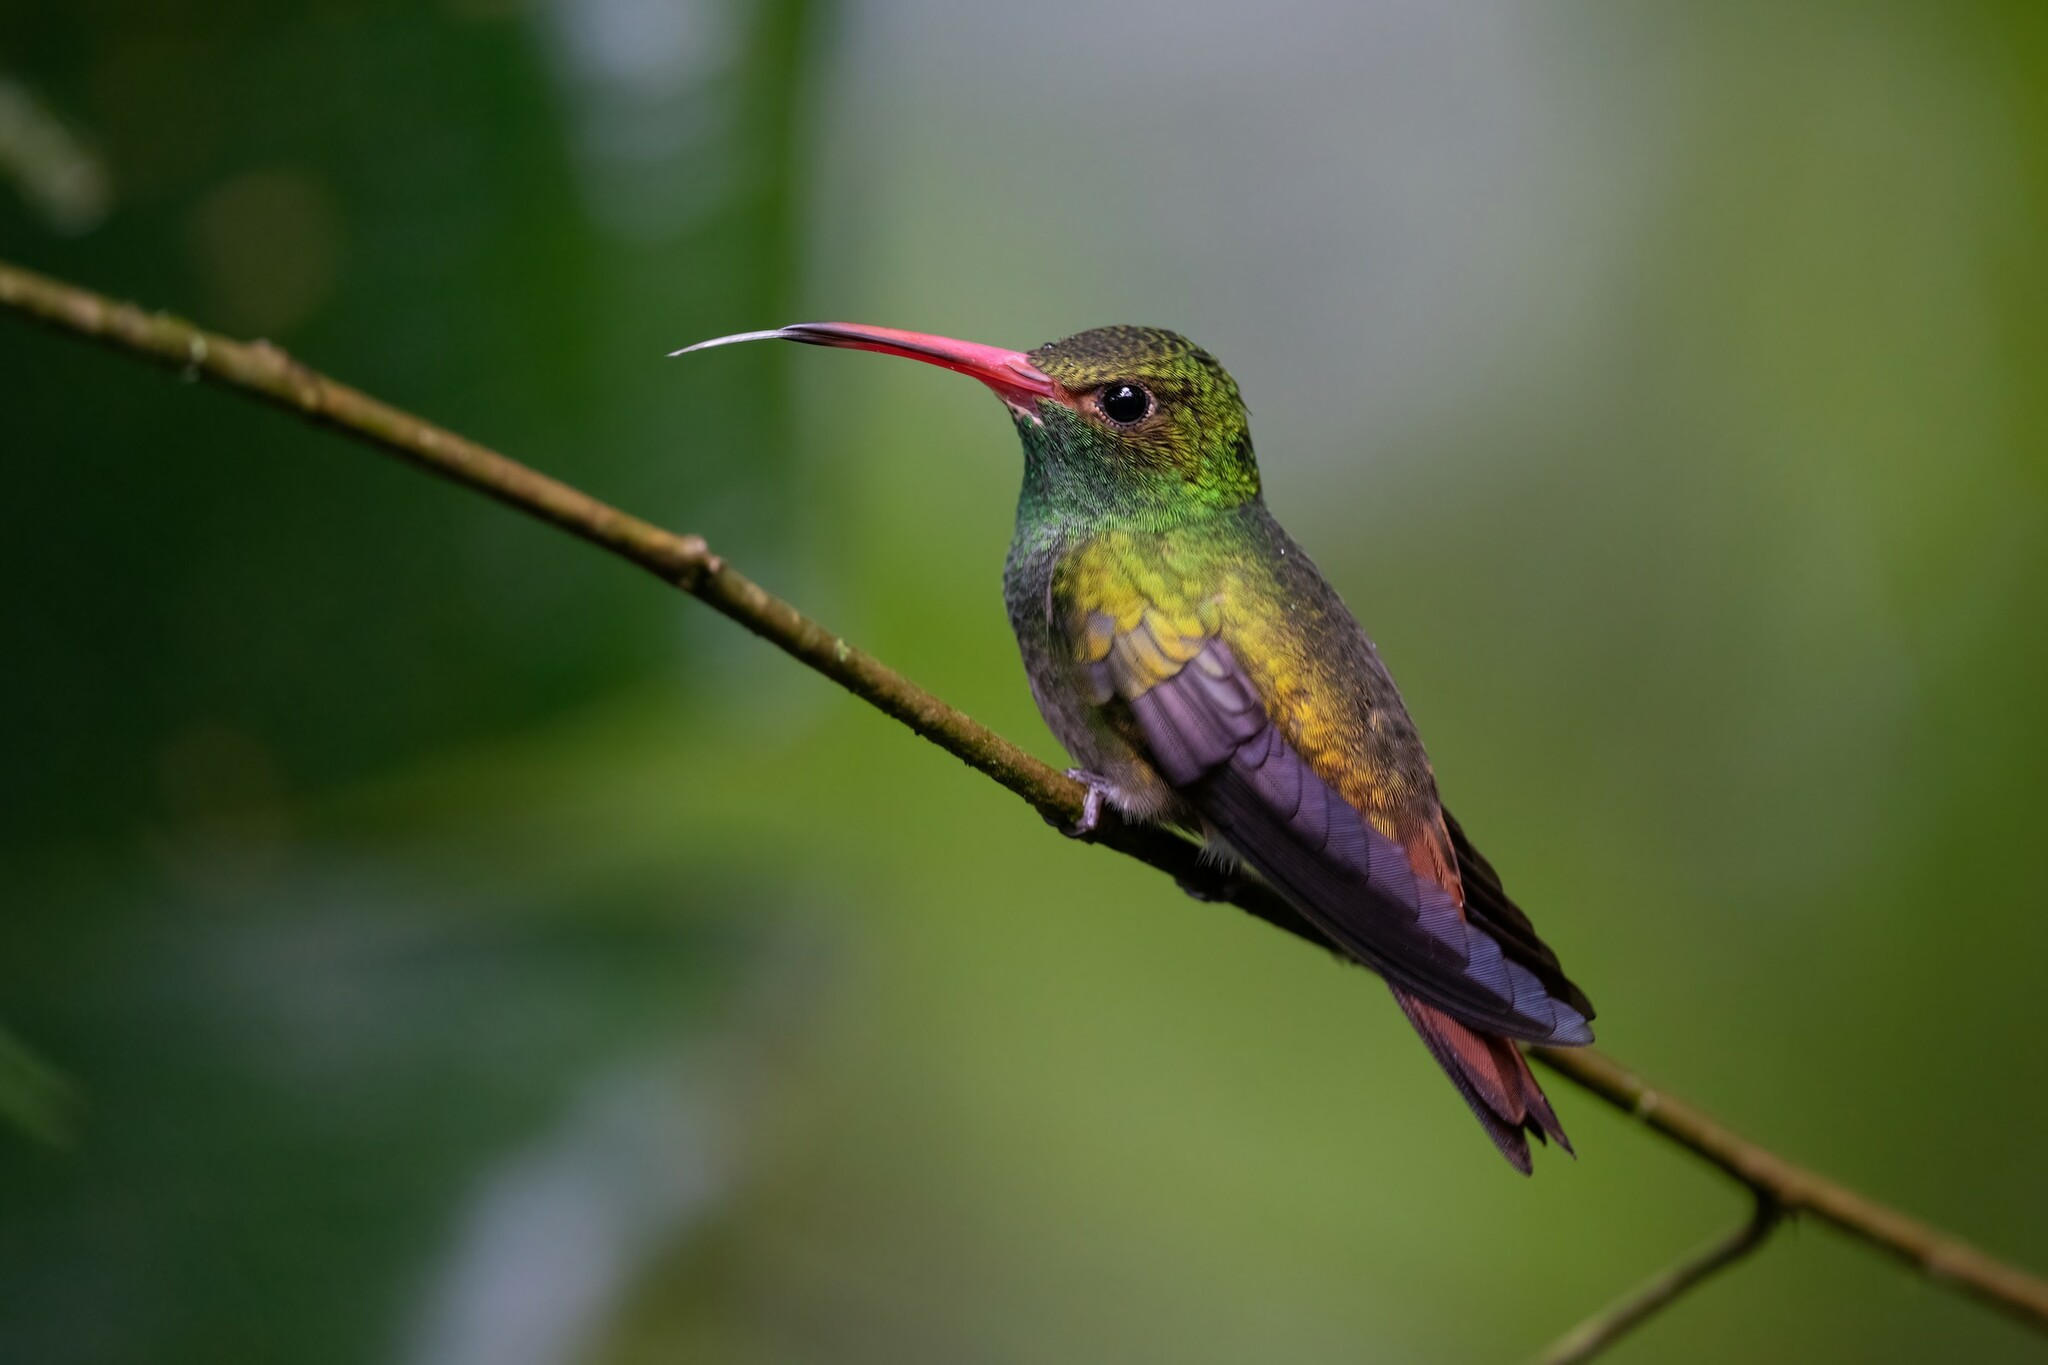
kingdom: Animalia
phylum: Chordata
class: Aves
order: Apodiformes
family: Trochilidae
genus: Amazilia
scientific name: Amazilia tzacatl
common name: Rufous-tailed hummingbird
